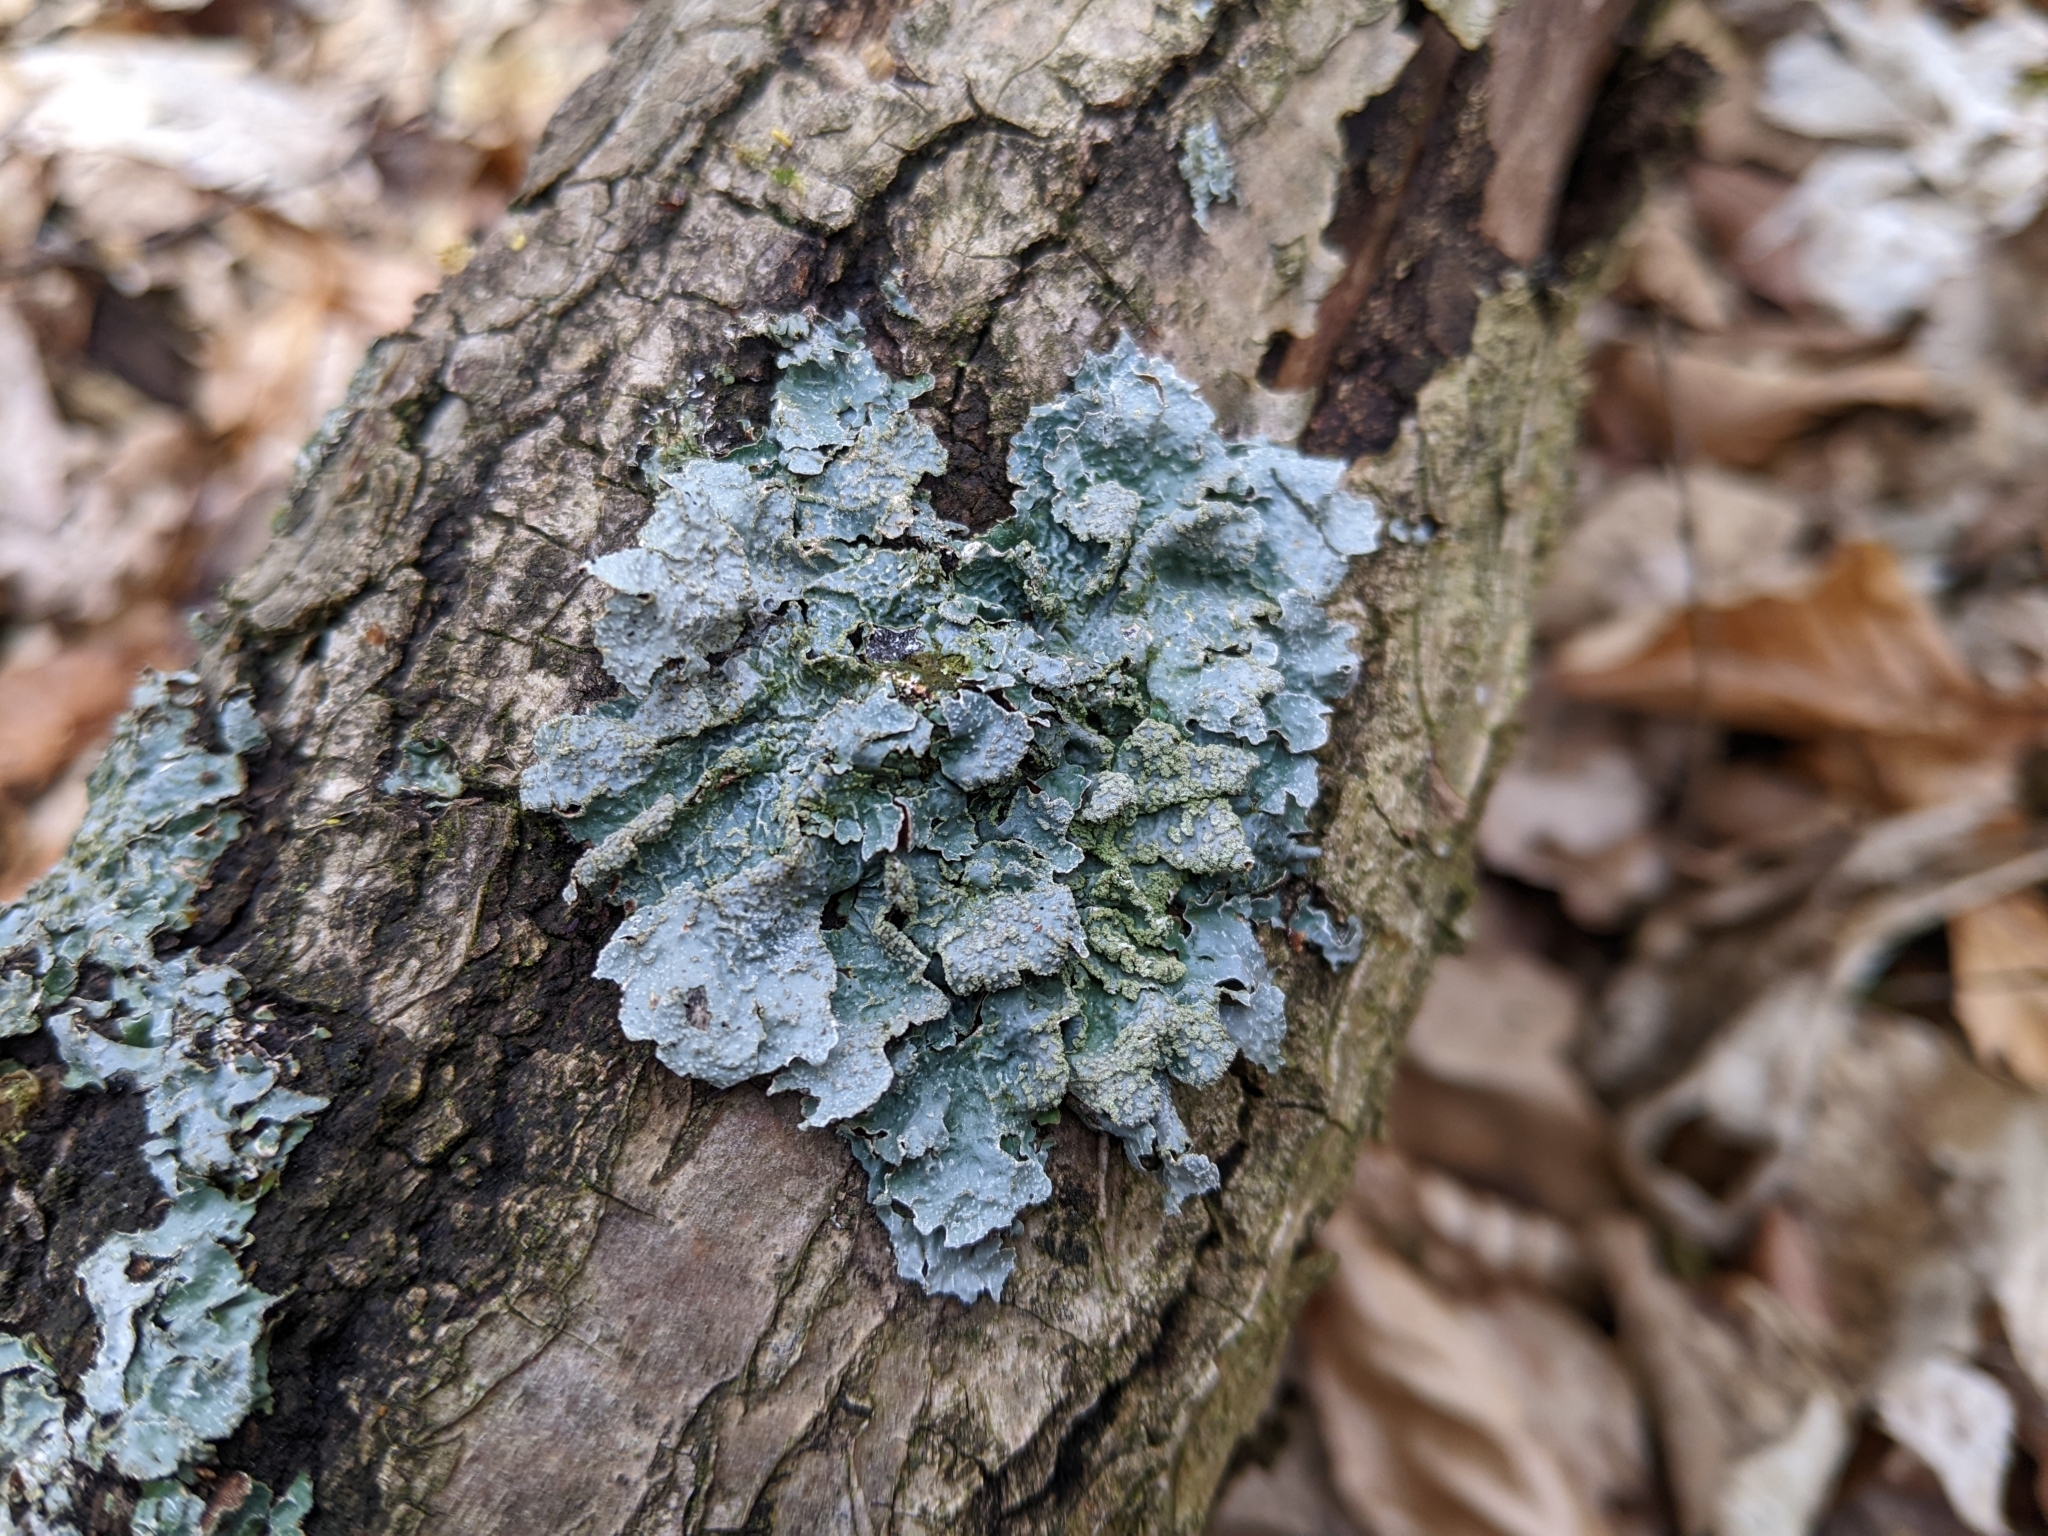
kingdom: Fungi
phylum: Ascomycota
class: Lecanoromycetes
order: Lecanorales
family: Parmeliaceae
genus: Parmelia
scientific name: Parmelia sulcata
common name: Netted shield lichen
